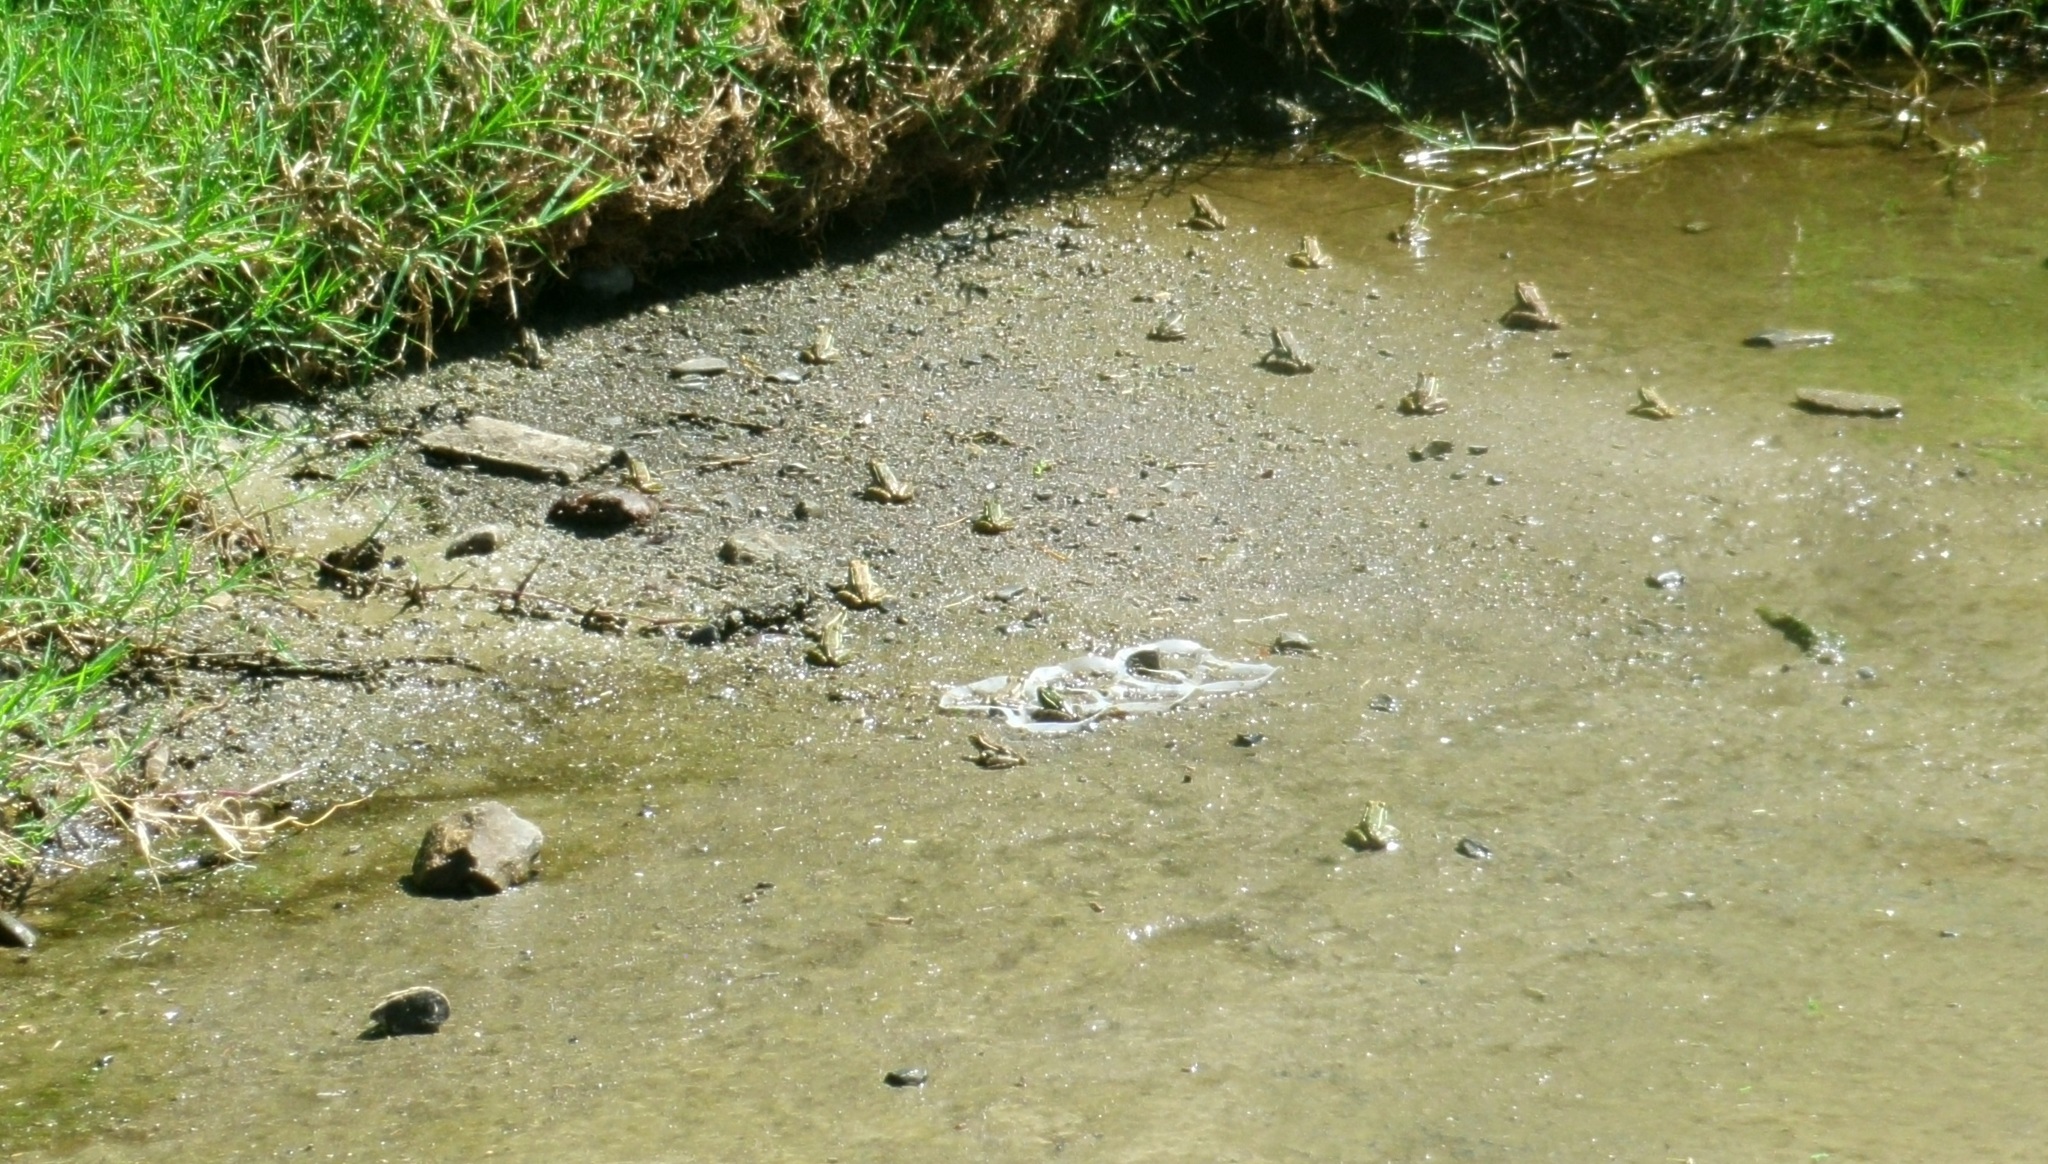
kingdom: Animalia
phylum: Chordata
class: Amphibia
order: Anura
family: Ranidae
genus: Lithobates
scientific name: Lithobates berlandieri
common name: Rio grande leopard frog
